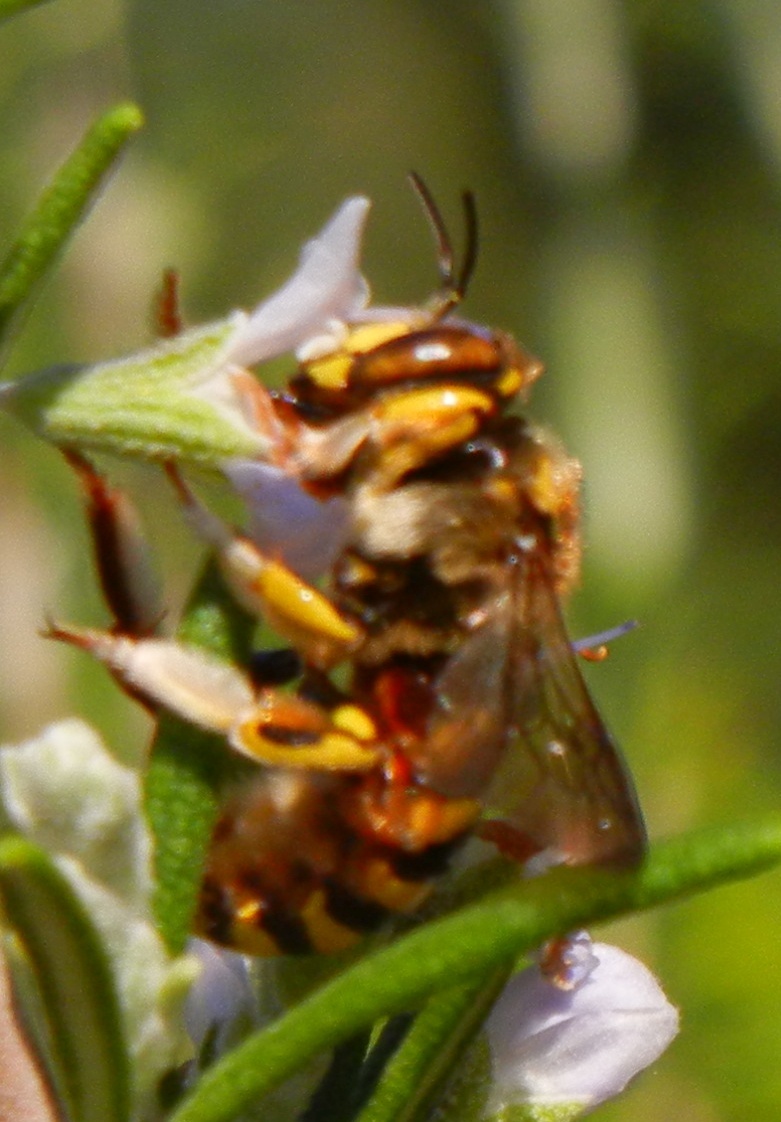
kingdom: Animalia
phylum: Arthropoda
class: Insecta
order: Hymenoptera
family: Megachilidae
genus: Anthidium
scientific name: Anthidium florentinum
